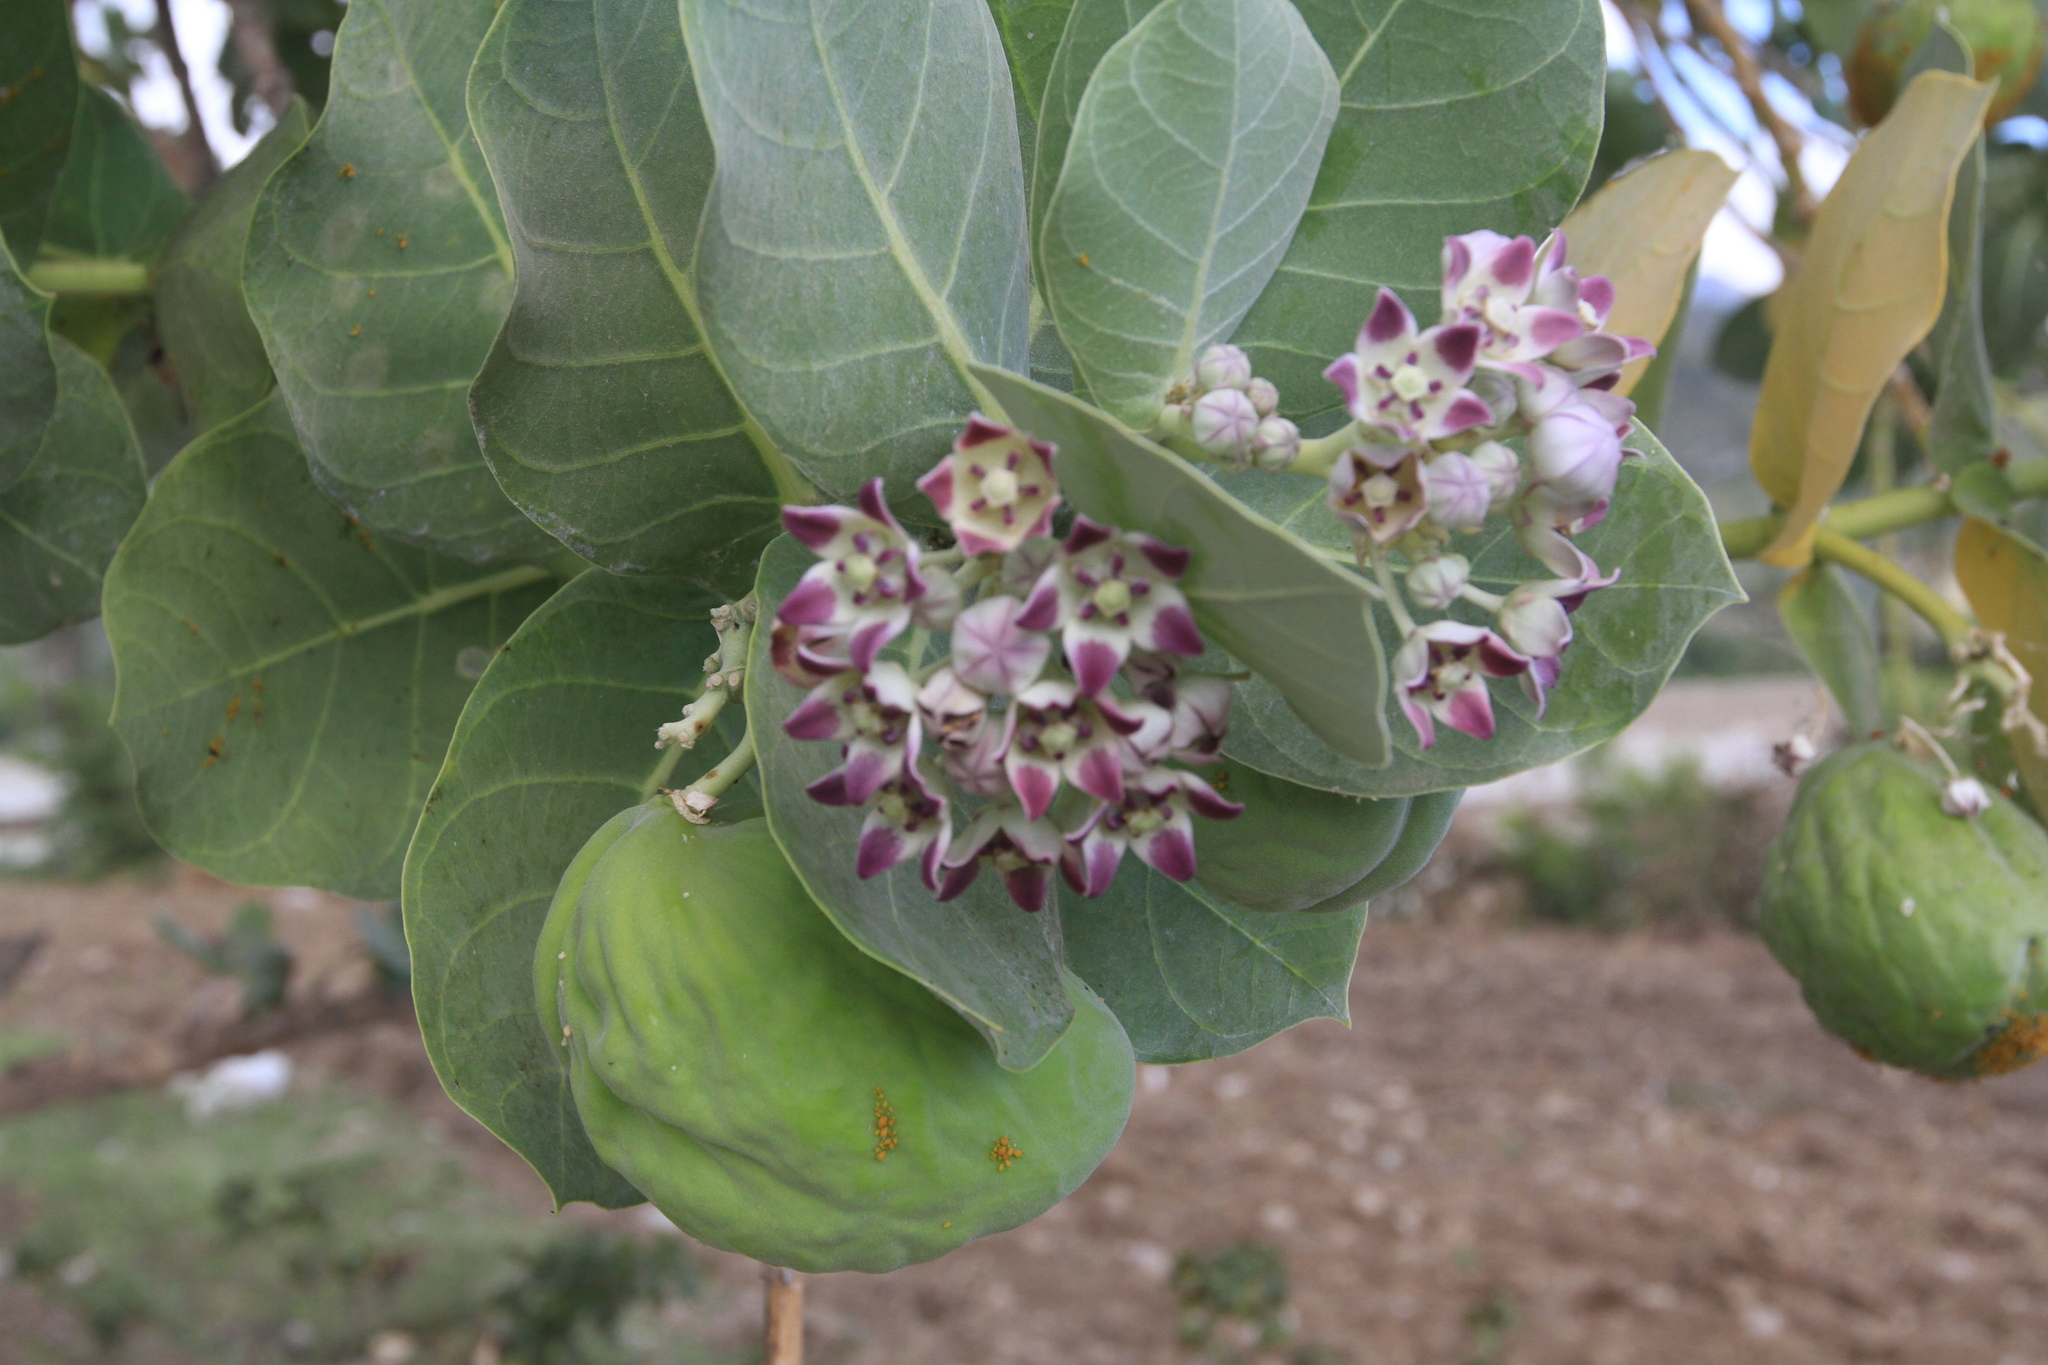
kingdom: Plantae
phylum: Tracheophyta
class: Magnoliopsida
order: Gentianales
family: Apocynaceae
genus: Calotropis
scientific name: Calotropis procera
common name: Roostertree
